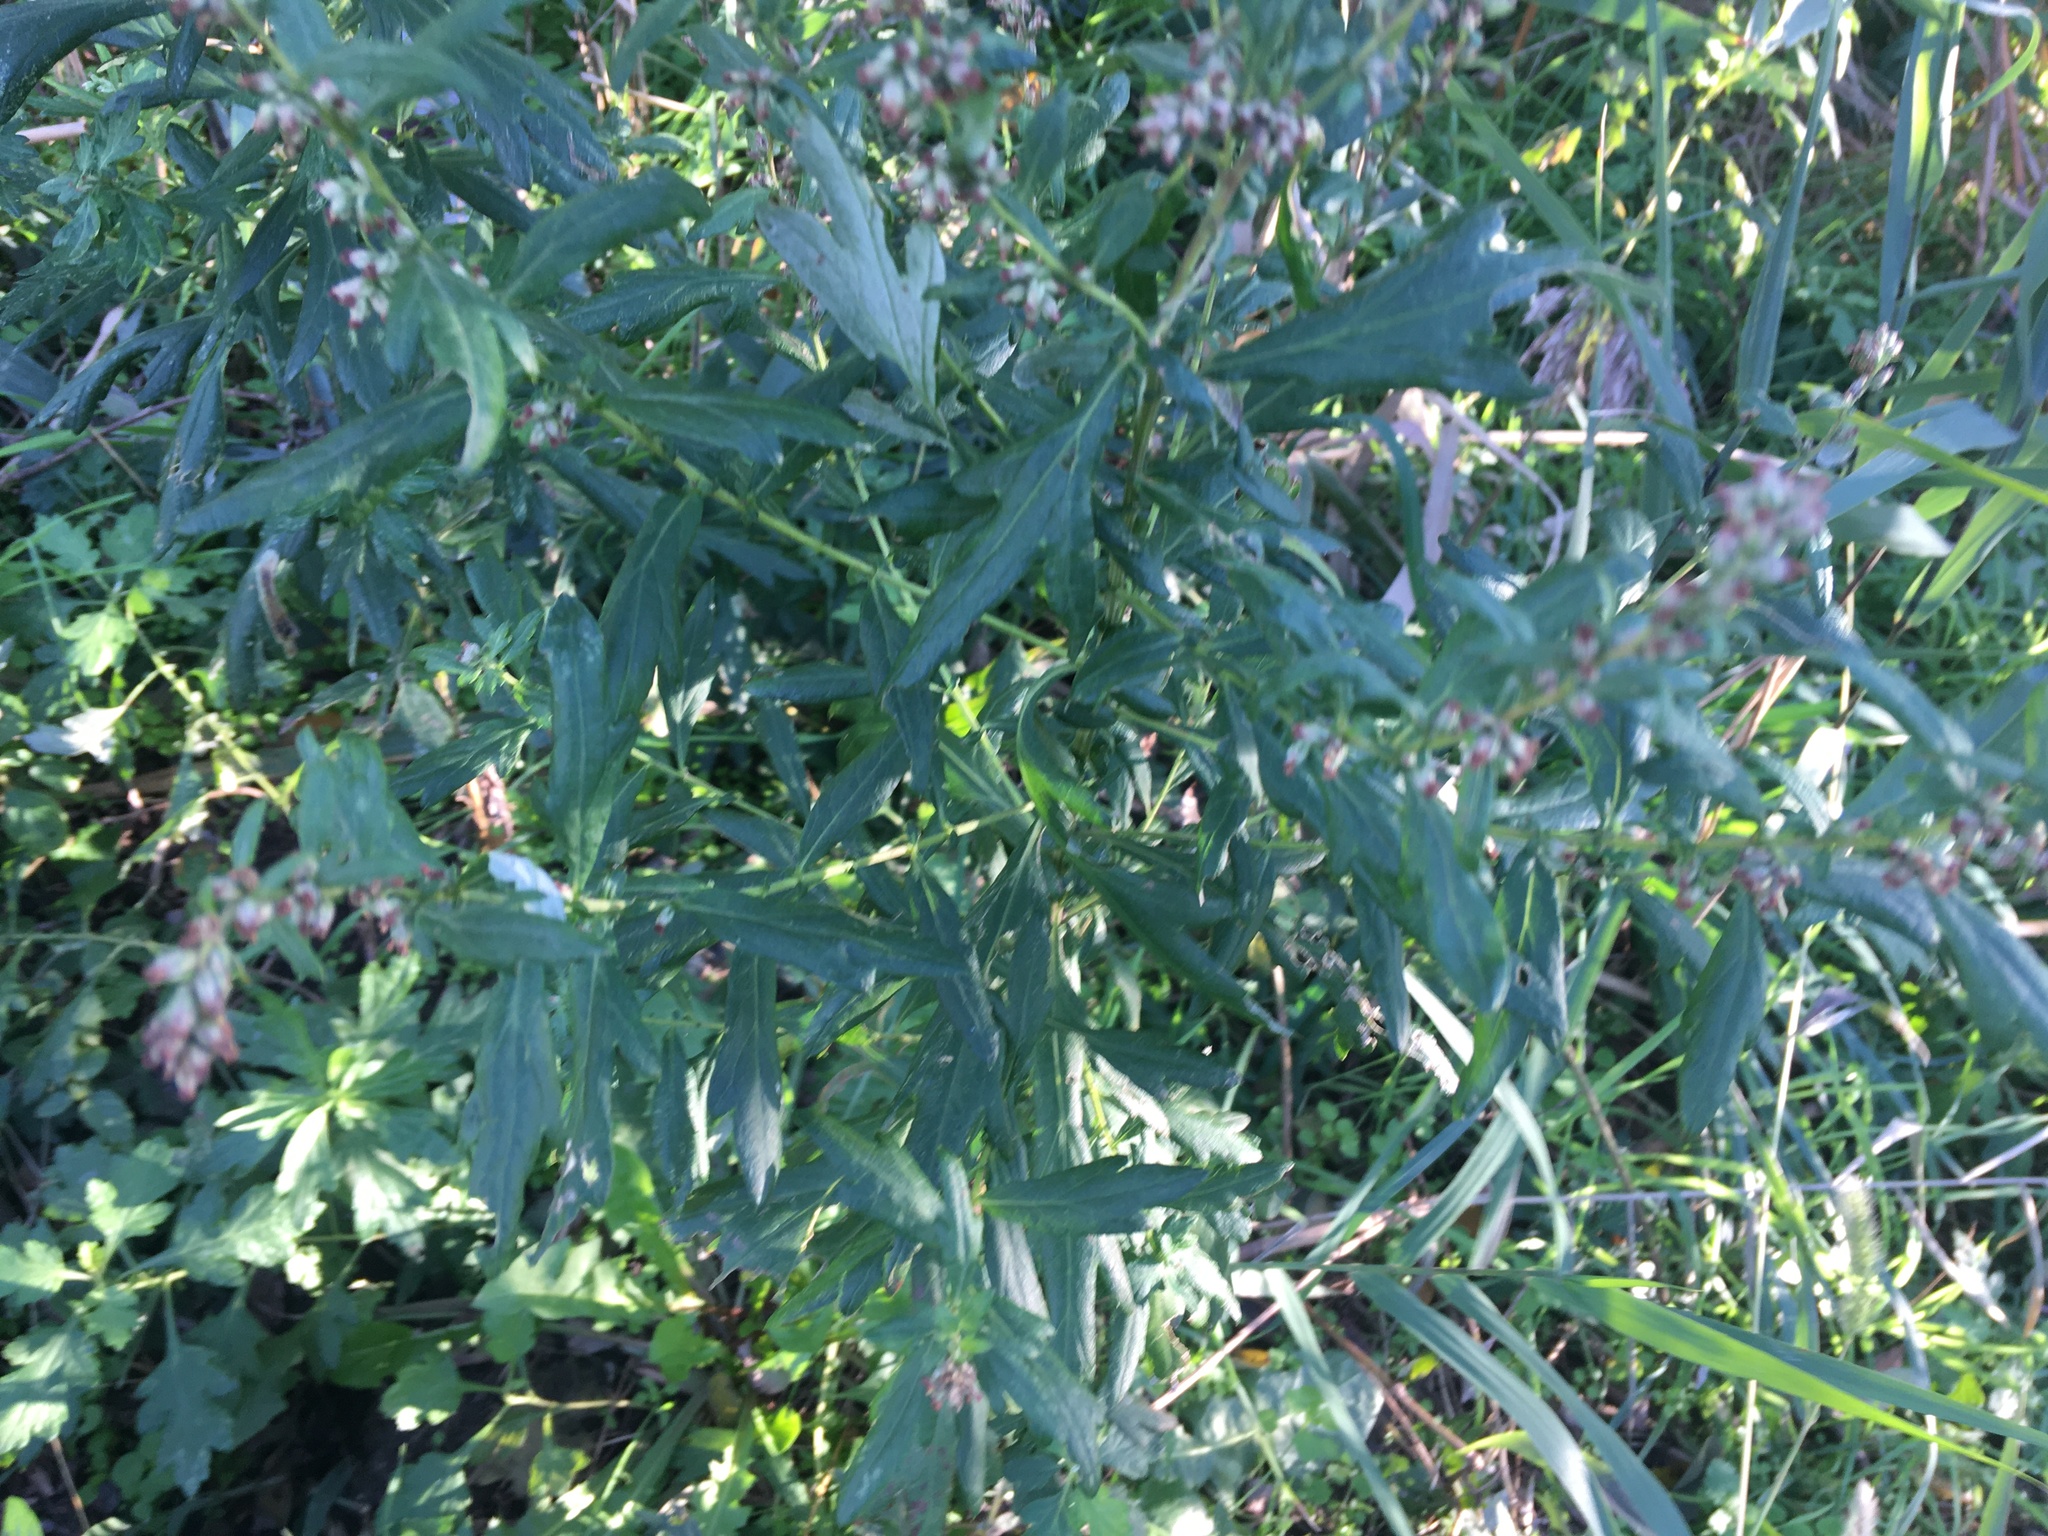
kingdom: Plantae
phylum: Tracheophyta
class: Magnoliopsida
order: Asterales
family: Asteraceae
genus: Artemisia
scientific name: Artemisia vulgaris
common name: Mugwort
